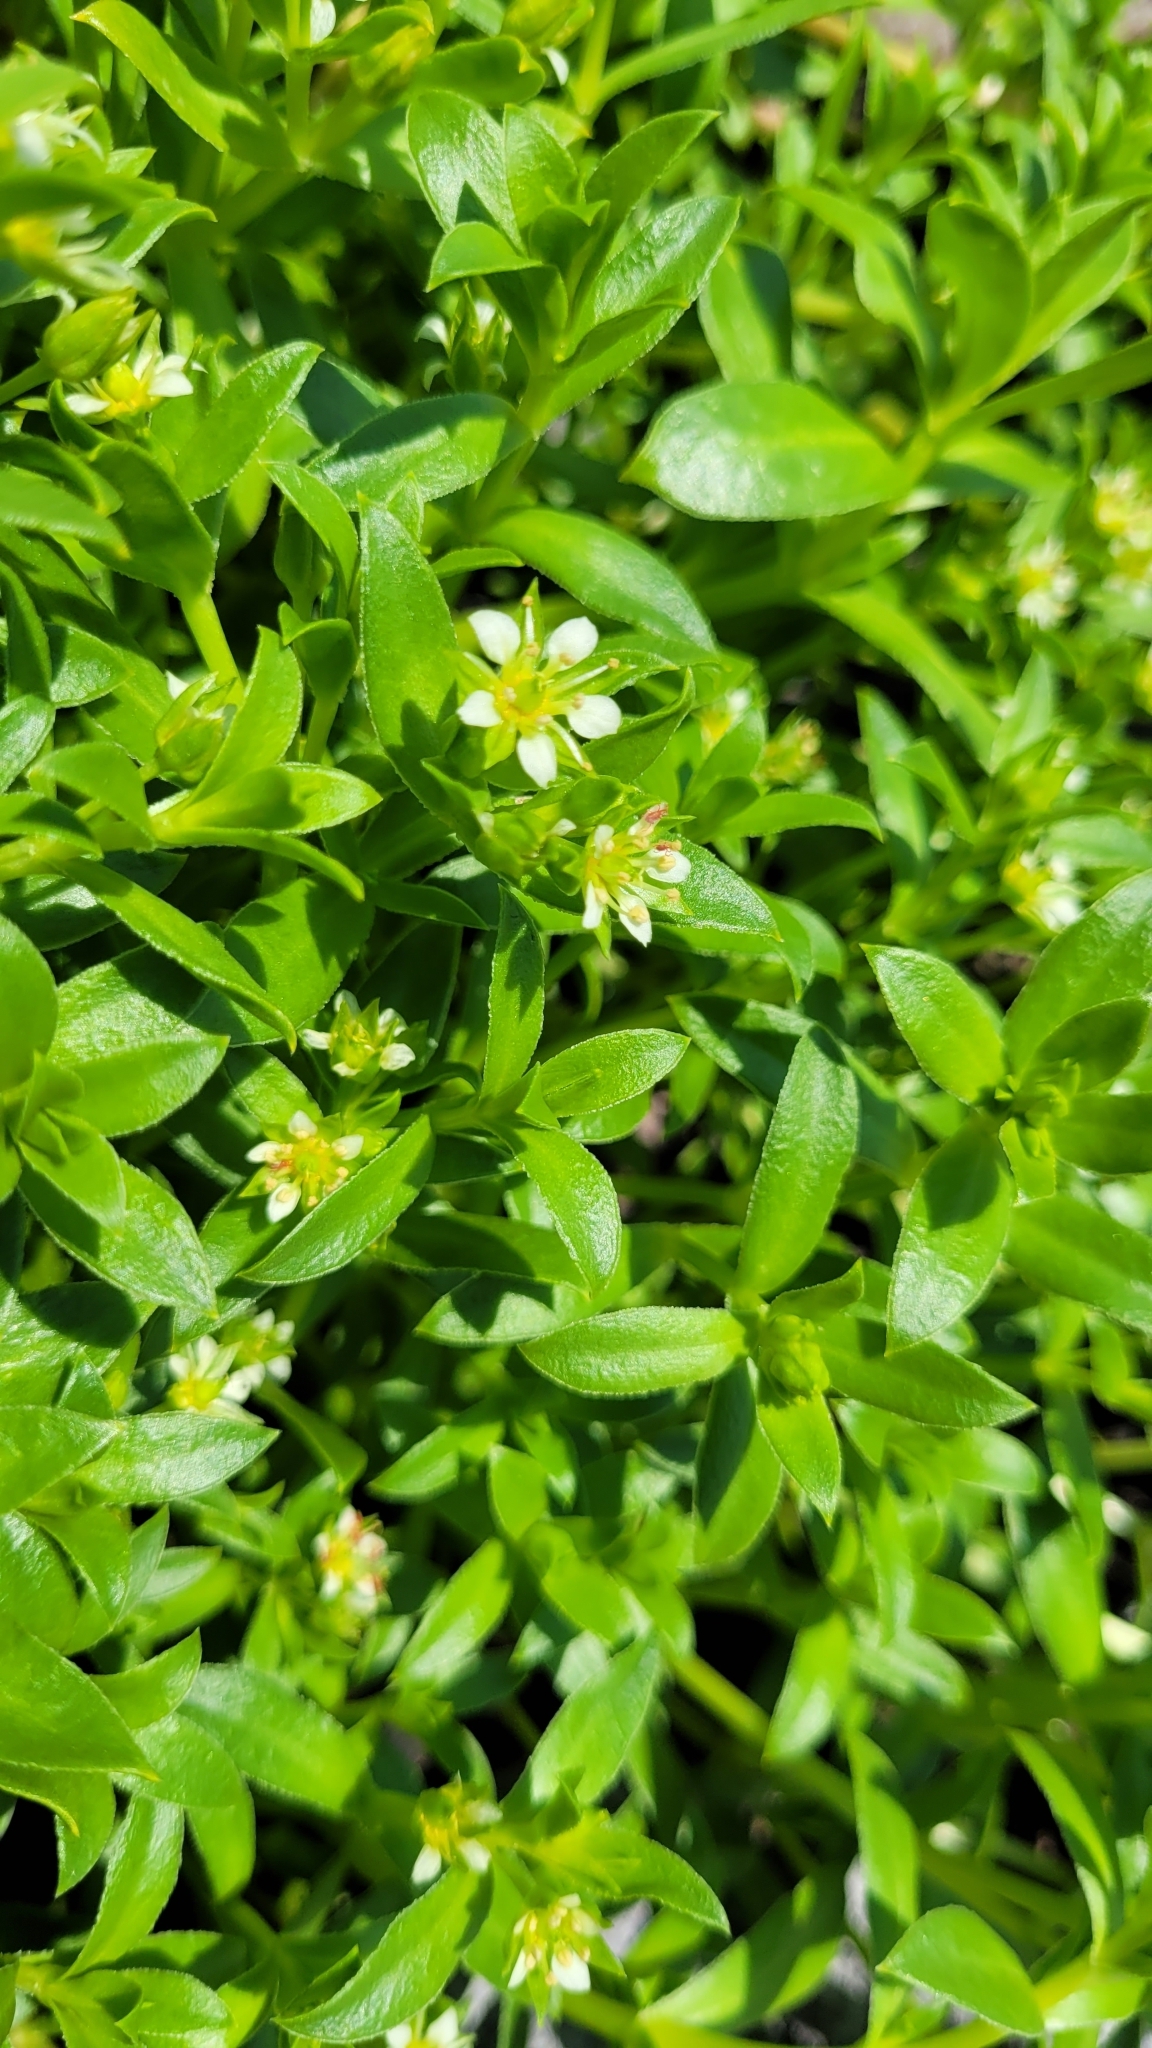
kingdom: Plantae
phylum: Tracheophyta
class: Magnoliopsida
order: Caryophyllales
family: Caryophyllaceae
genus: Honckenya
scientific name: Honckenya peploides
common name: Sea sandwort
